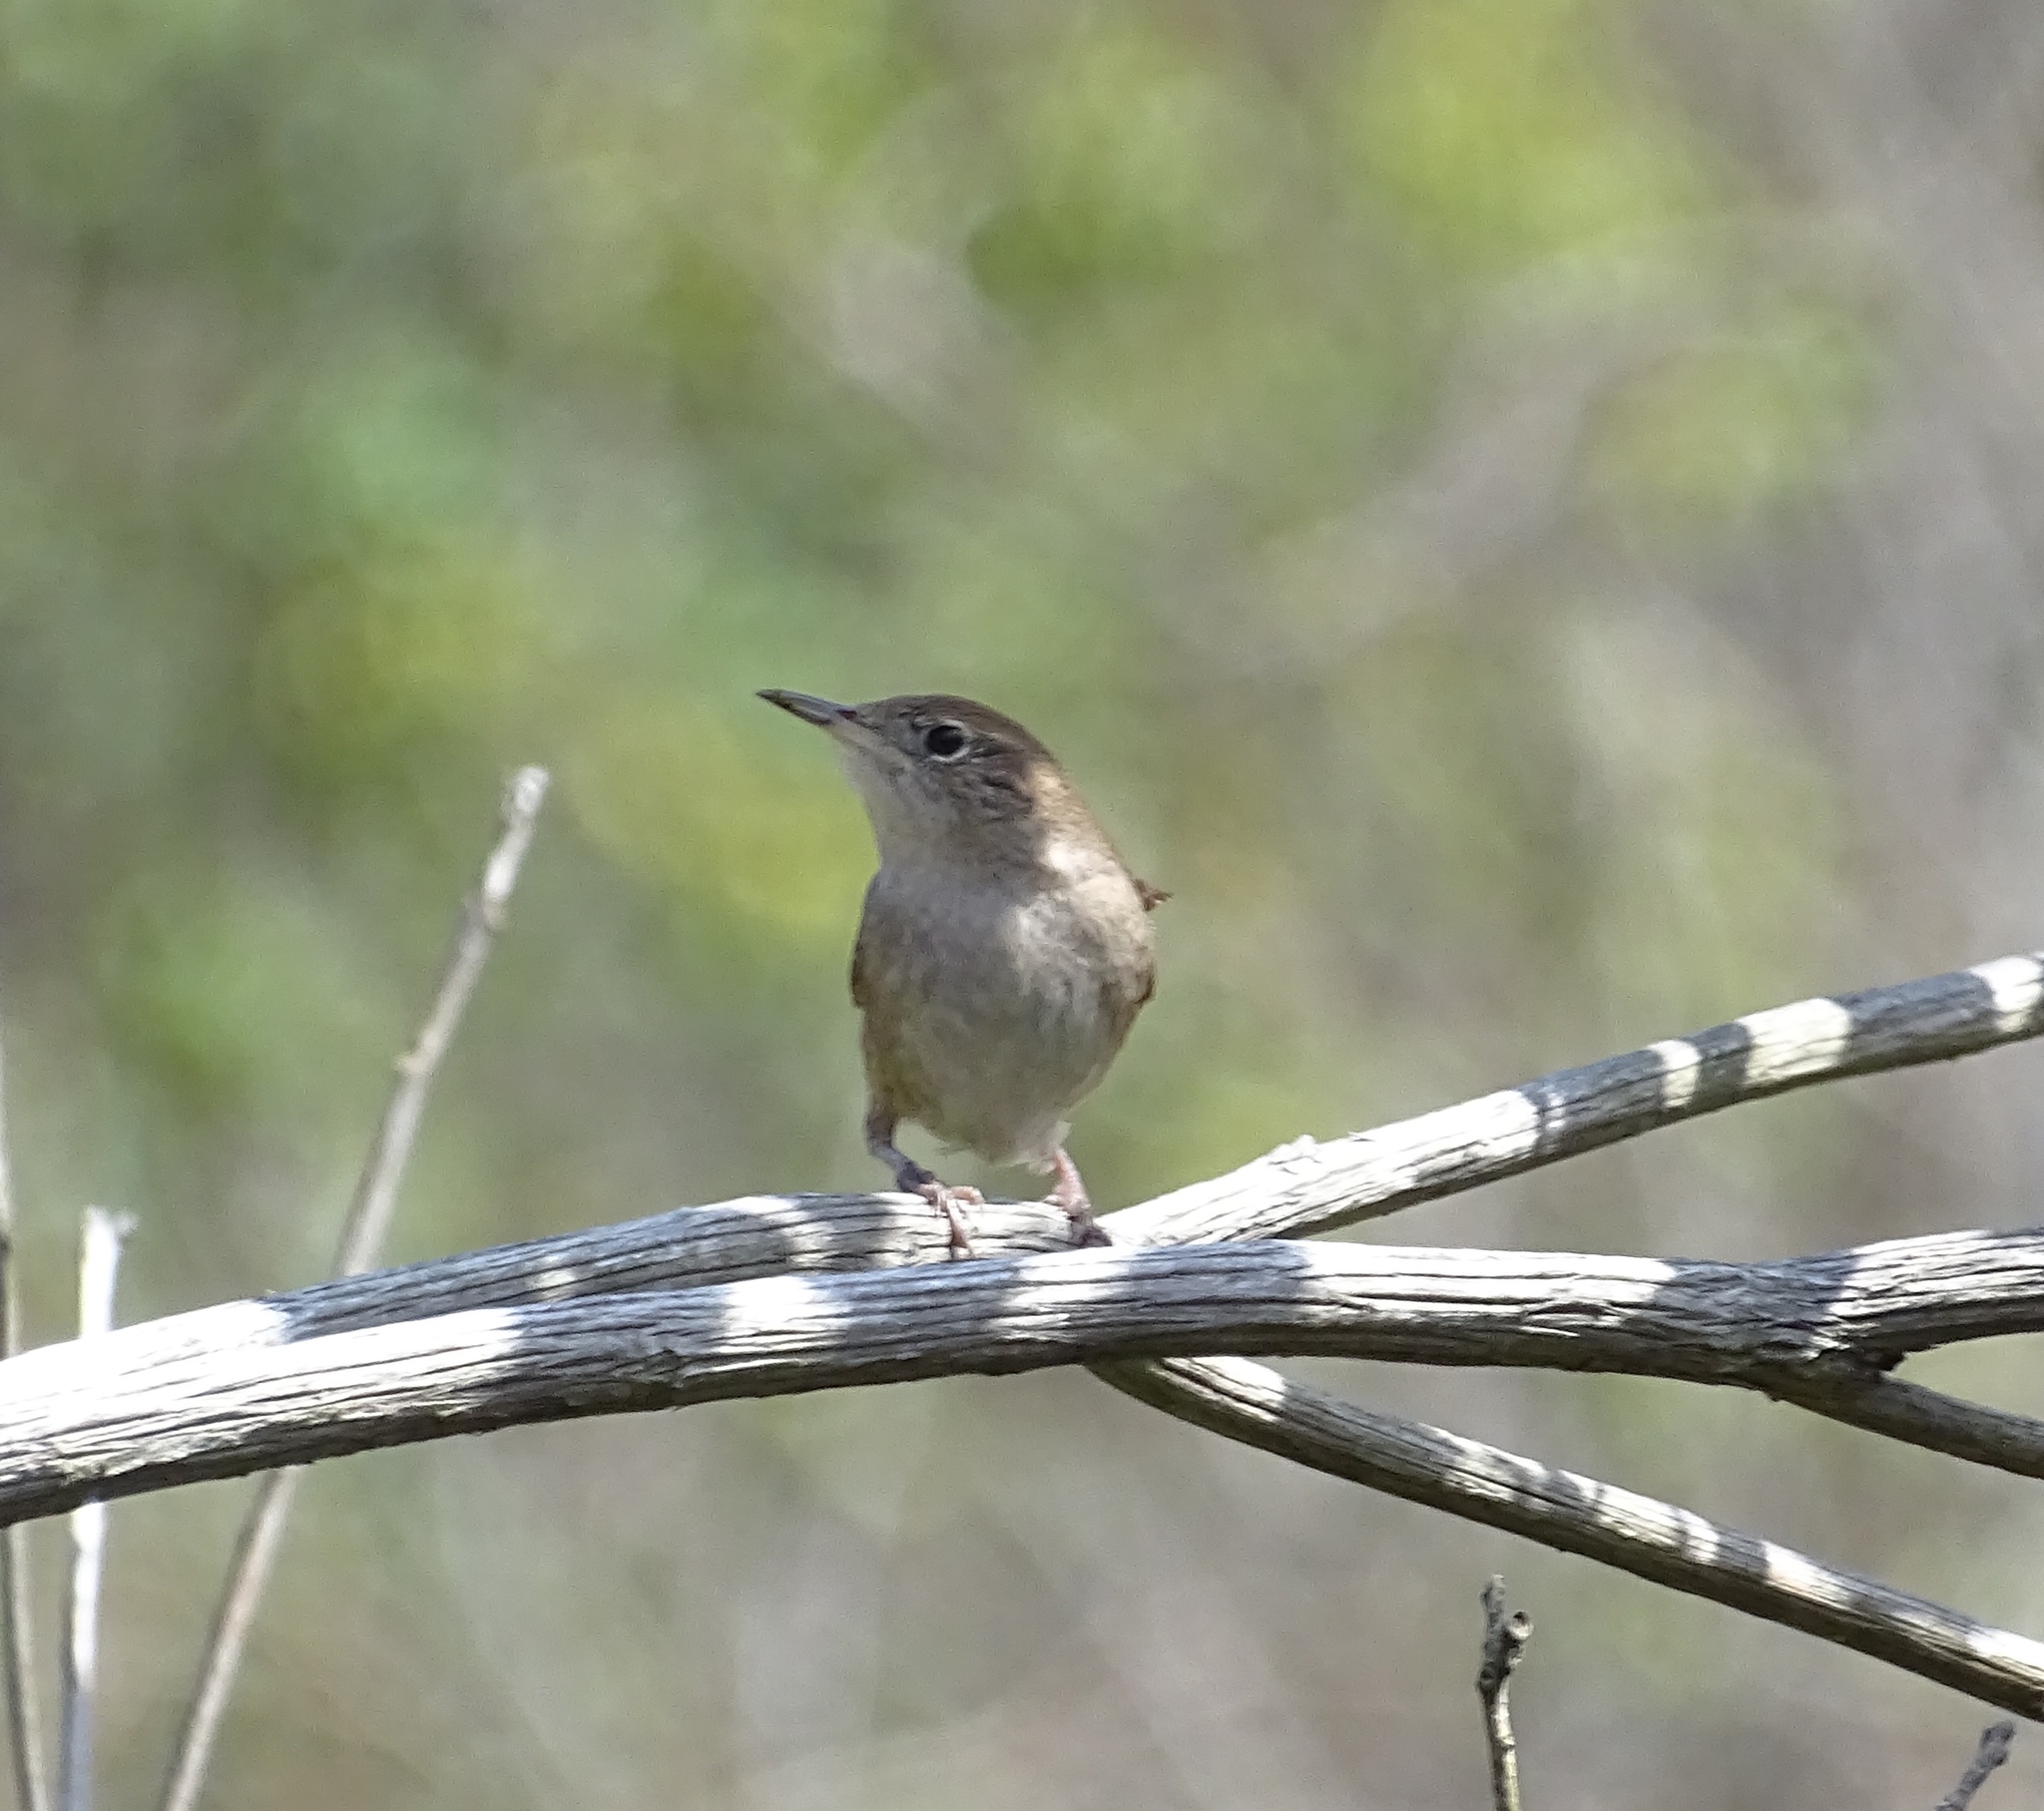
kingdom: Animalia
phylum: Chordata
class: Aves
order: Passeriformes
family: Troglodytidae
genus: Troglodytes
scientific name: Troglodytes aedon
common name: House wren
